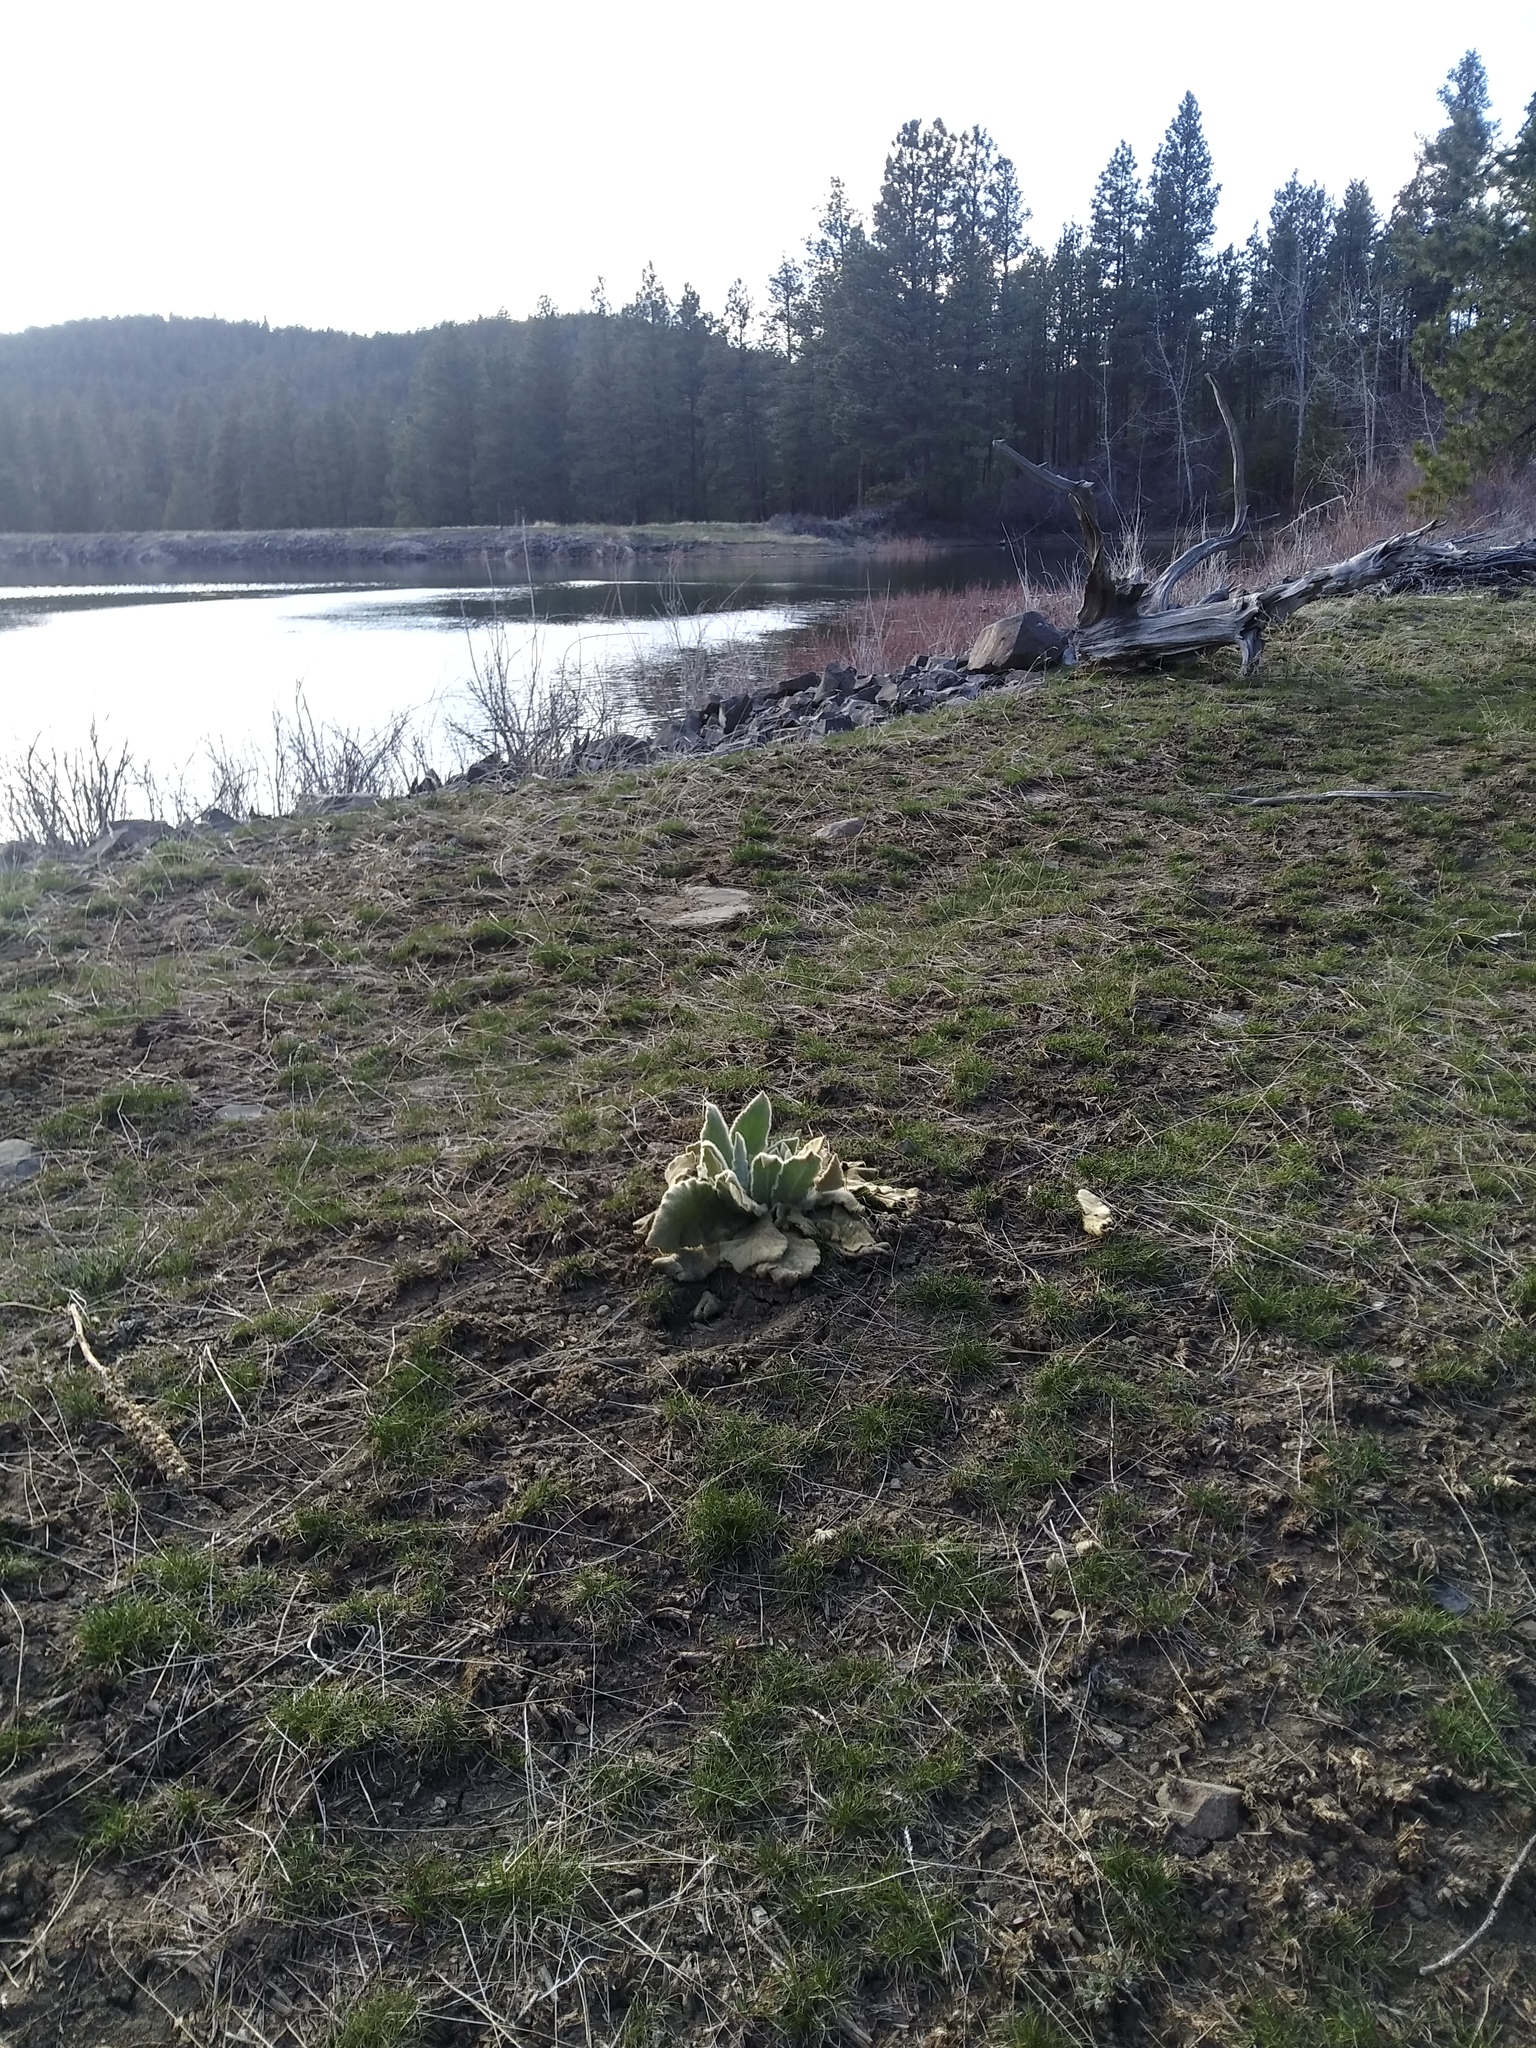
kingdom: Plantae
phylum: Tracheophyta
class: Magnoliopsida
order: Lamiales
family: Scrophulariaceae
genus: Verbascum
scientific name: Verbascum thapsus
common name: Common mullein
